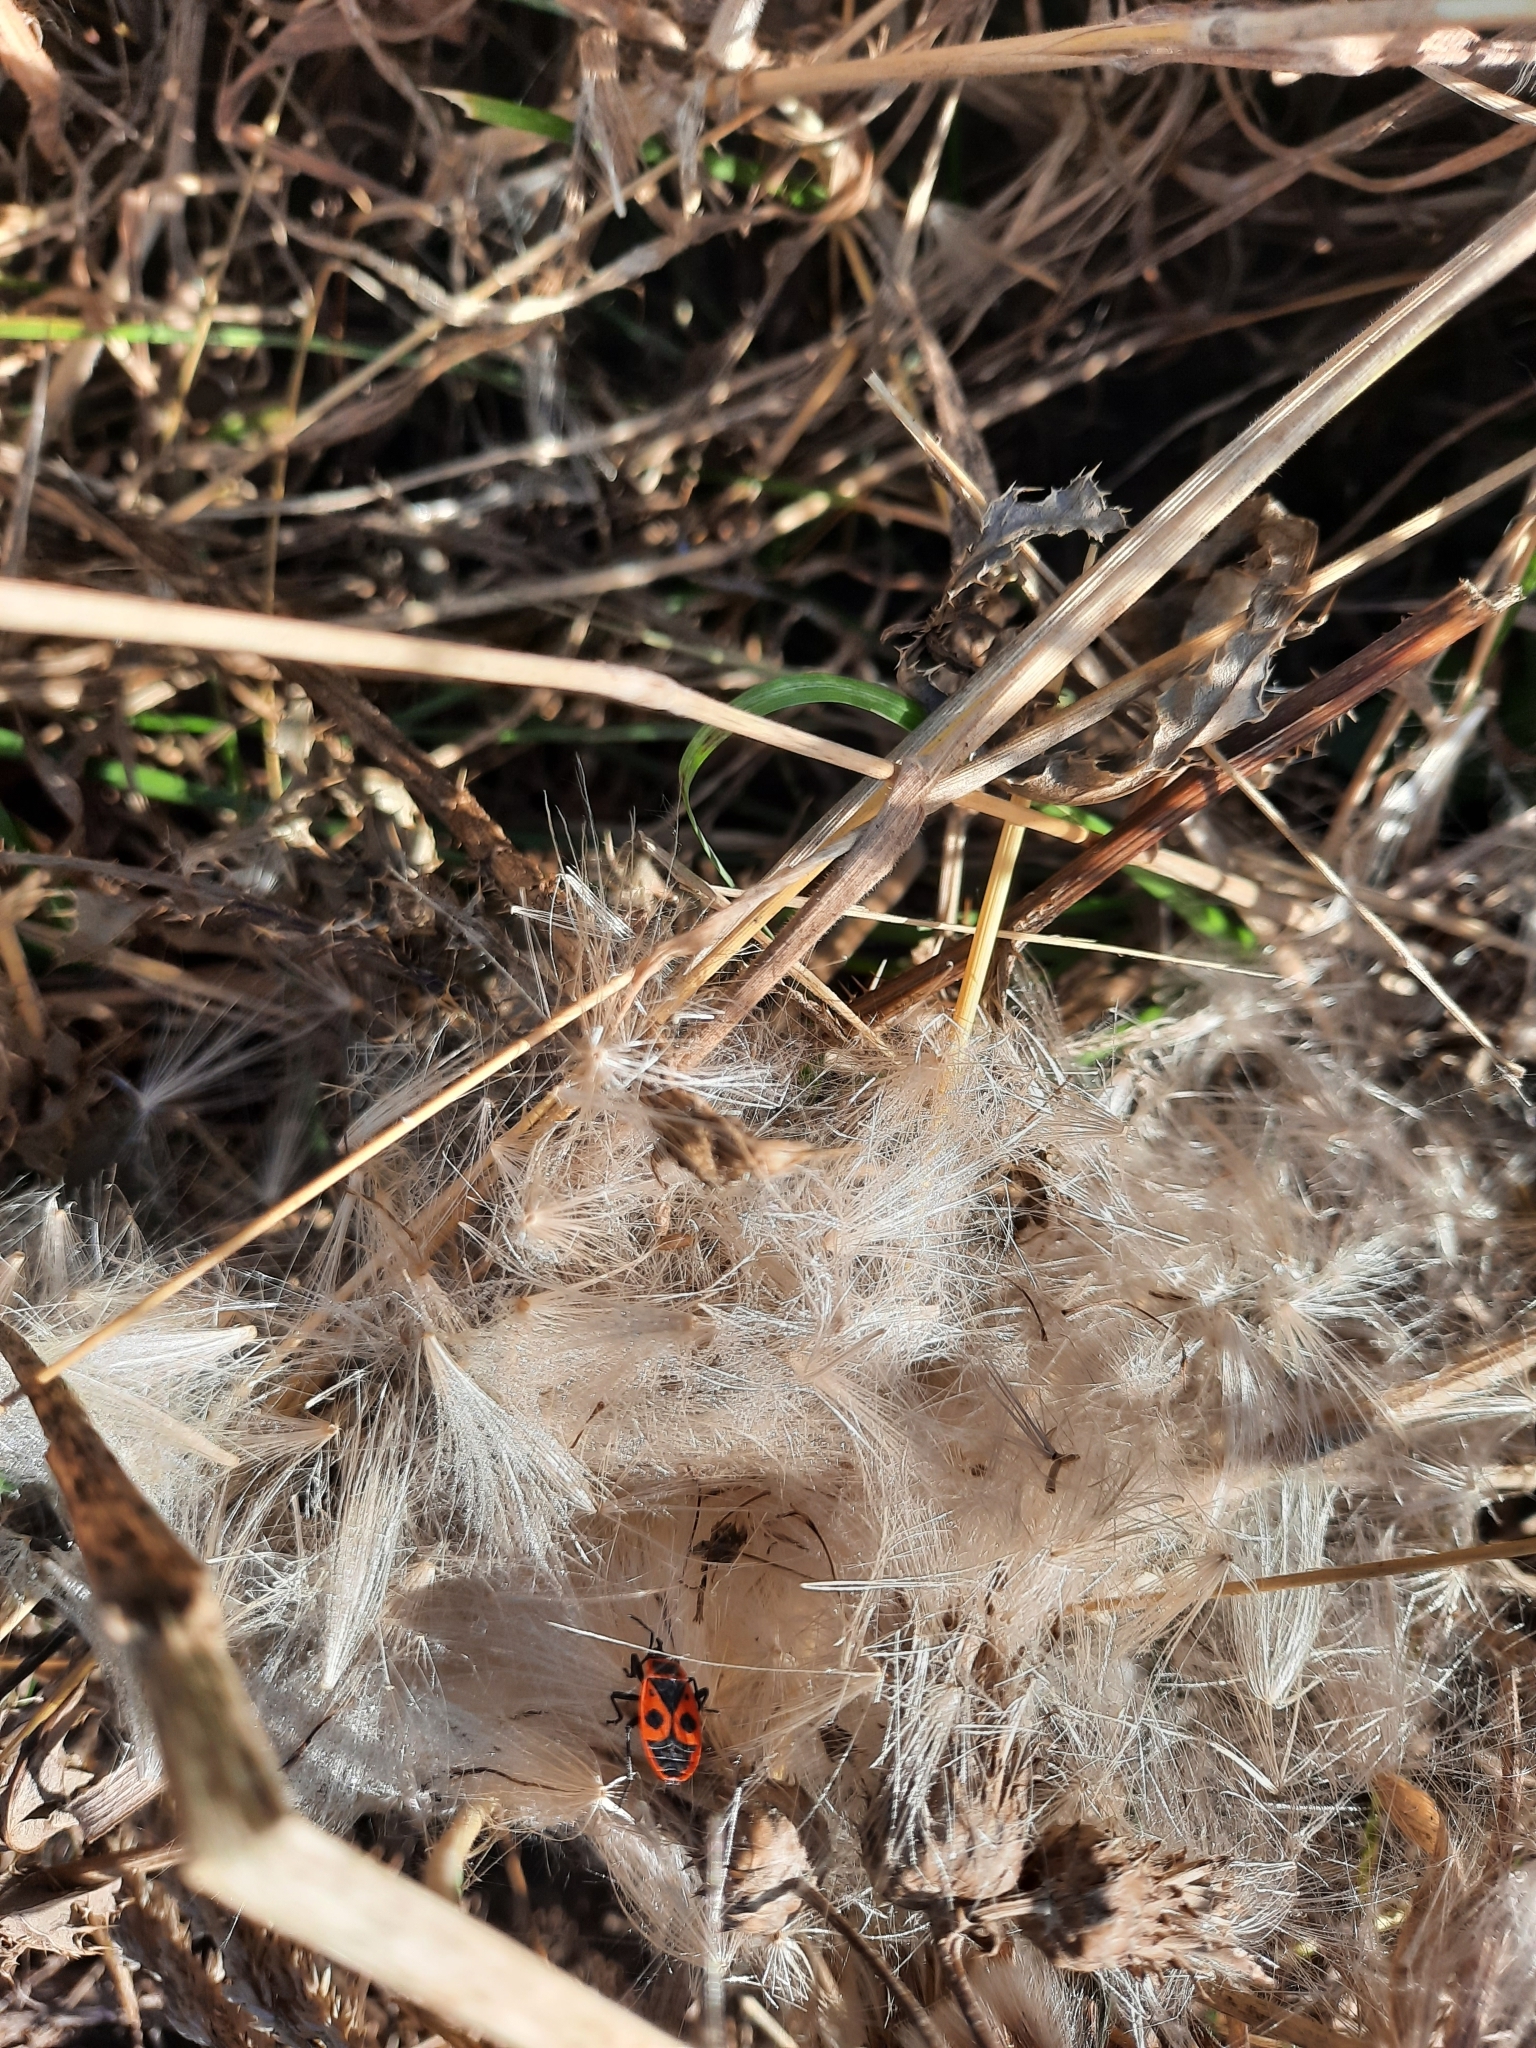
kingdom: Animalia
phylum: Arthropoda
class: Insecta
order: Hemiptera
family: Pyrrhocoridae
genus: Pyrrhocoris
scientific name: Pyrrhocoris apterus
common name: Firebug
